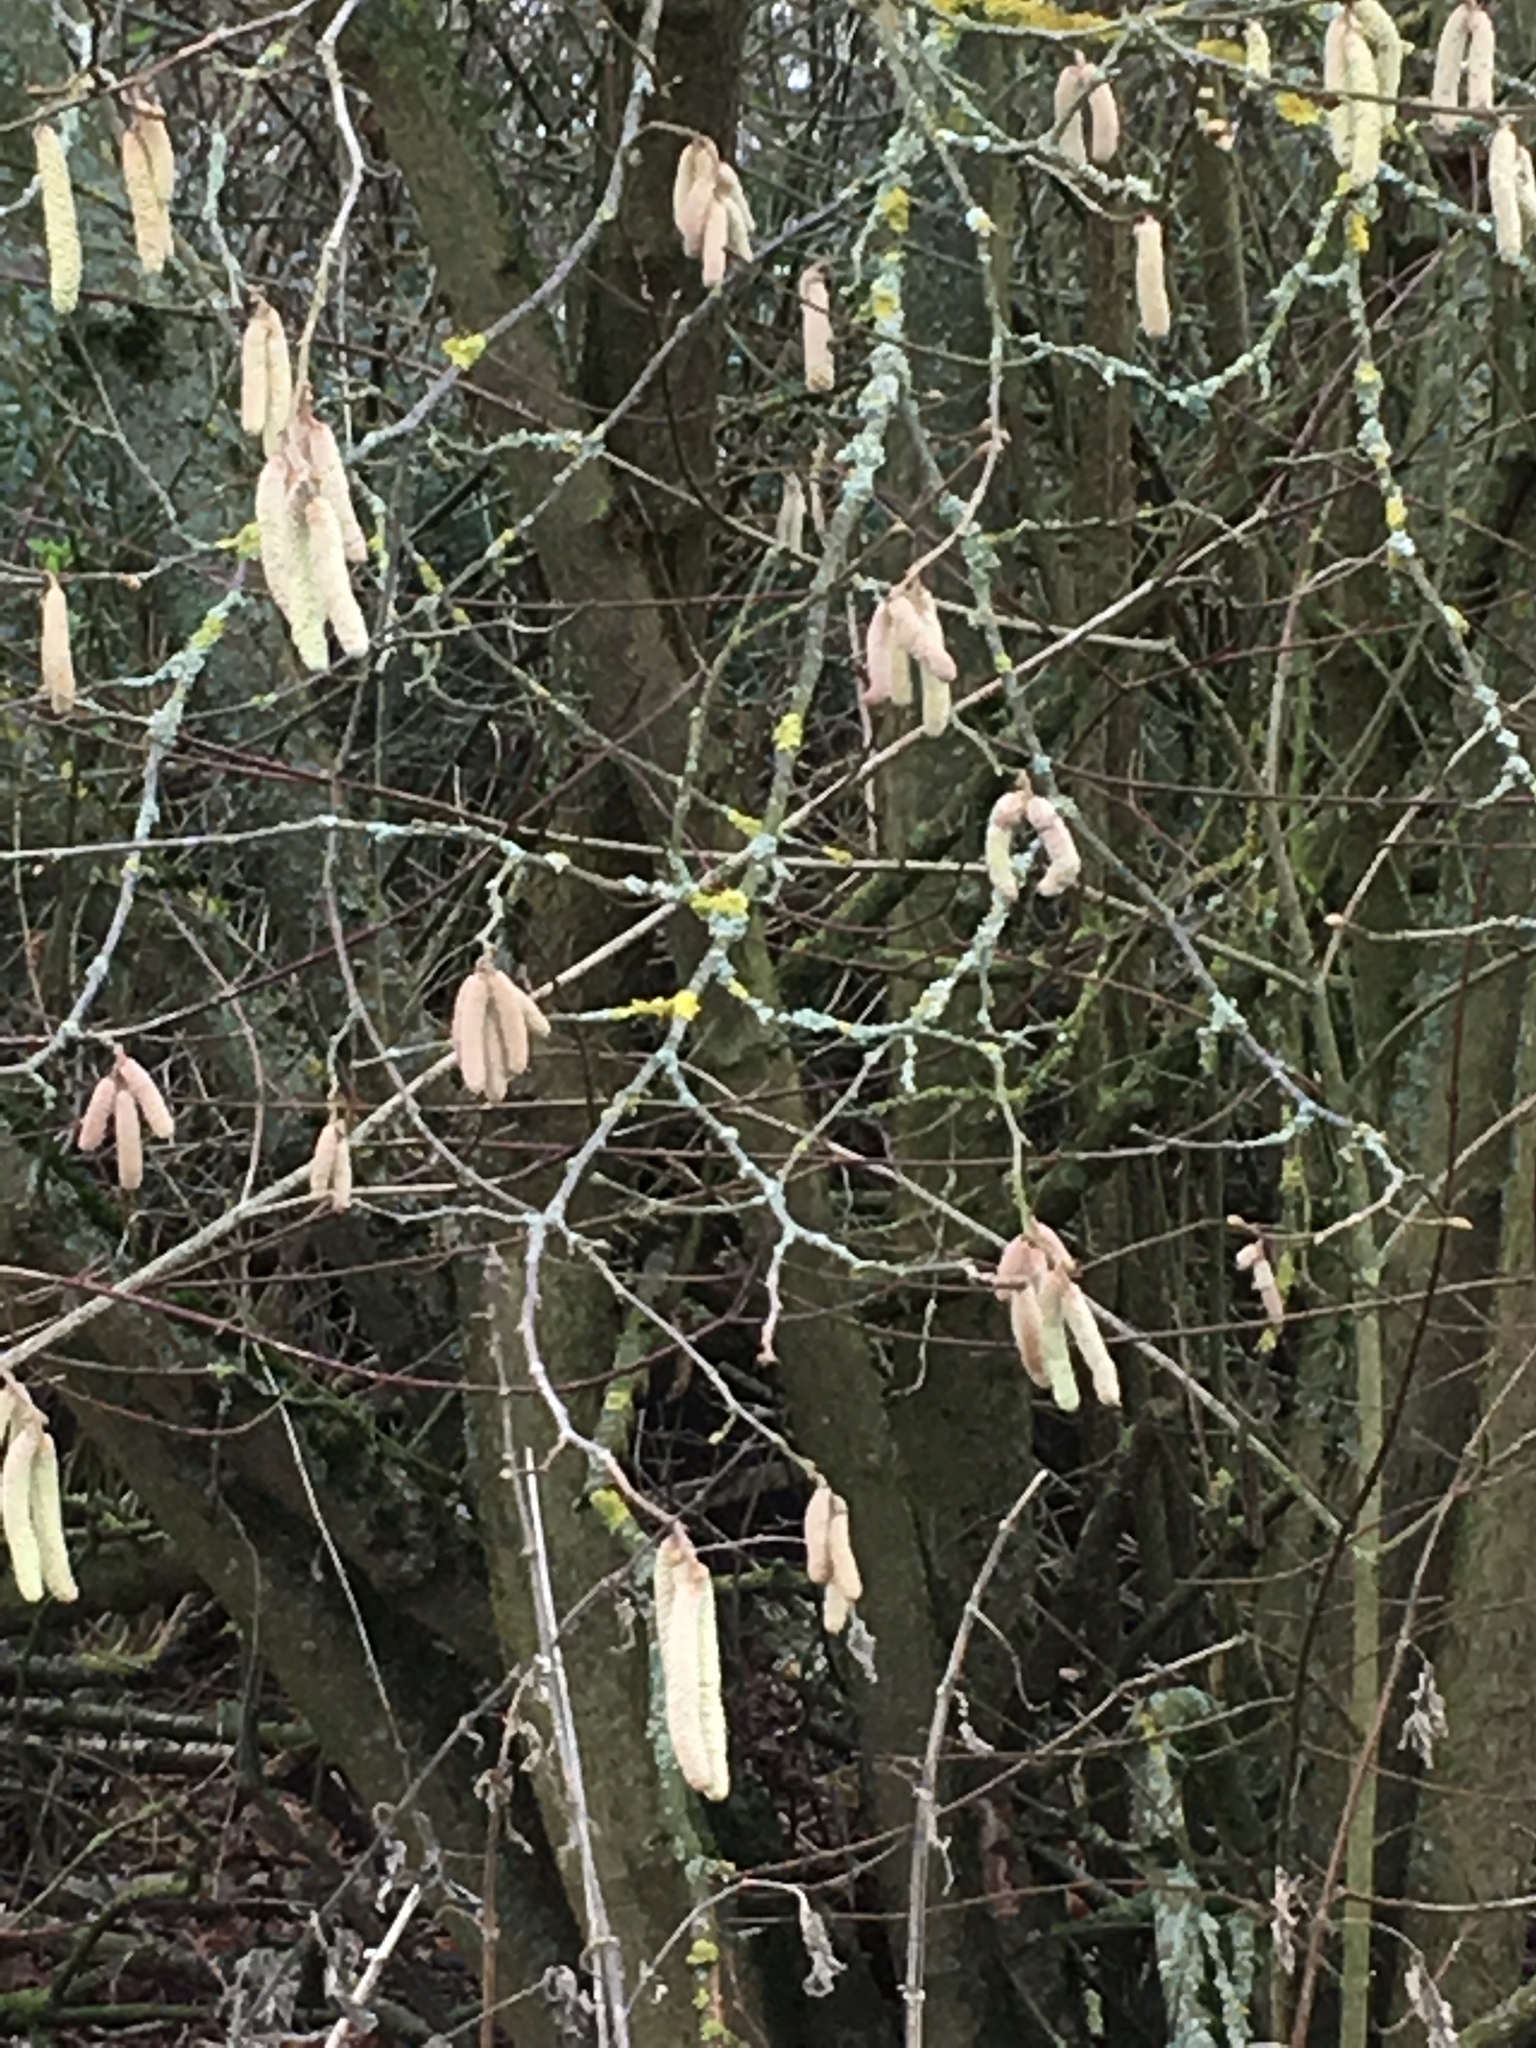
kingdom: Plantae
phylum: Tracheophyta
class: Magnoliopsida
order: Fagales
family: Betulaceae
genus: Corylus
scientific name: Corylus avellana
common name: European hazel
